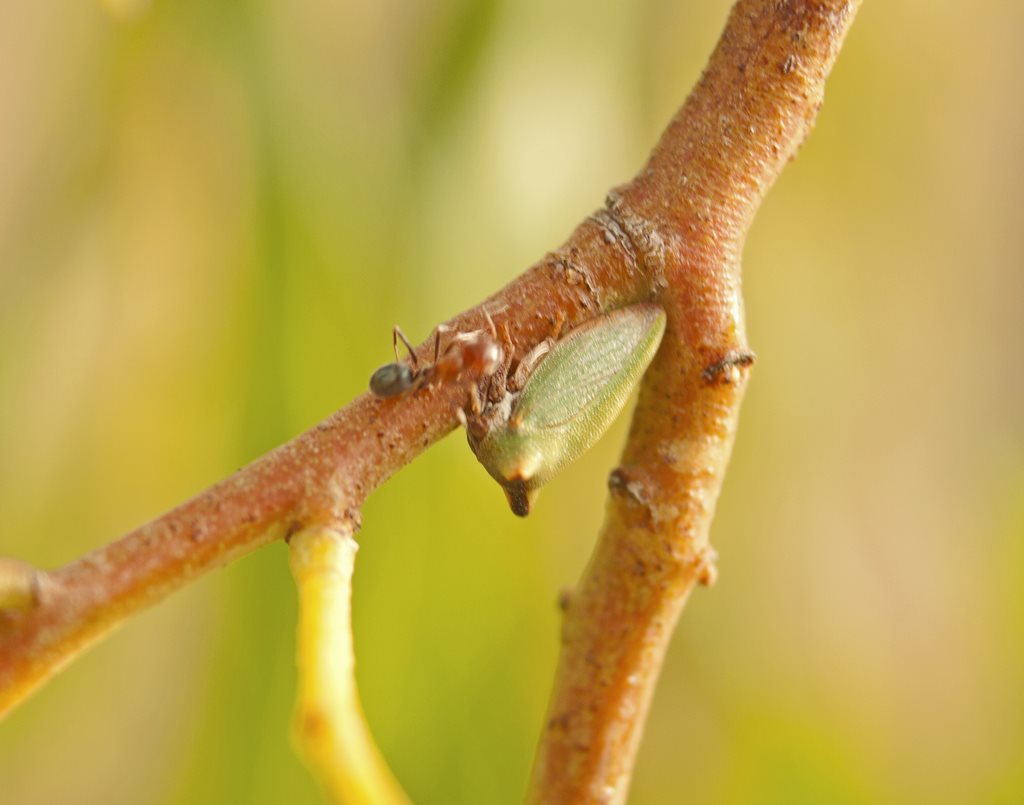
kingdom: Animalia
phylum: Arthropoda
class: Insecta
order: Hemiptera
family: Membracidae
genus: Sextius
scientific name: Sextius virescens
